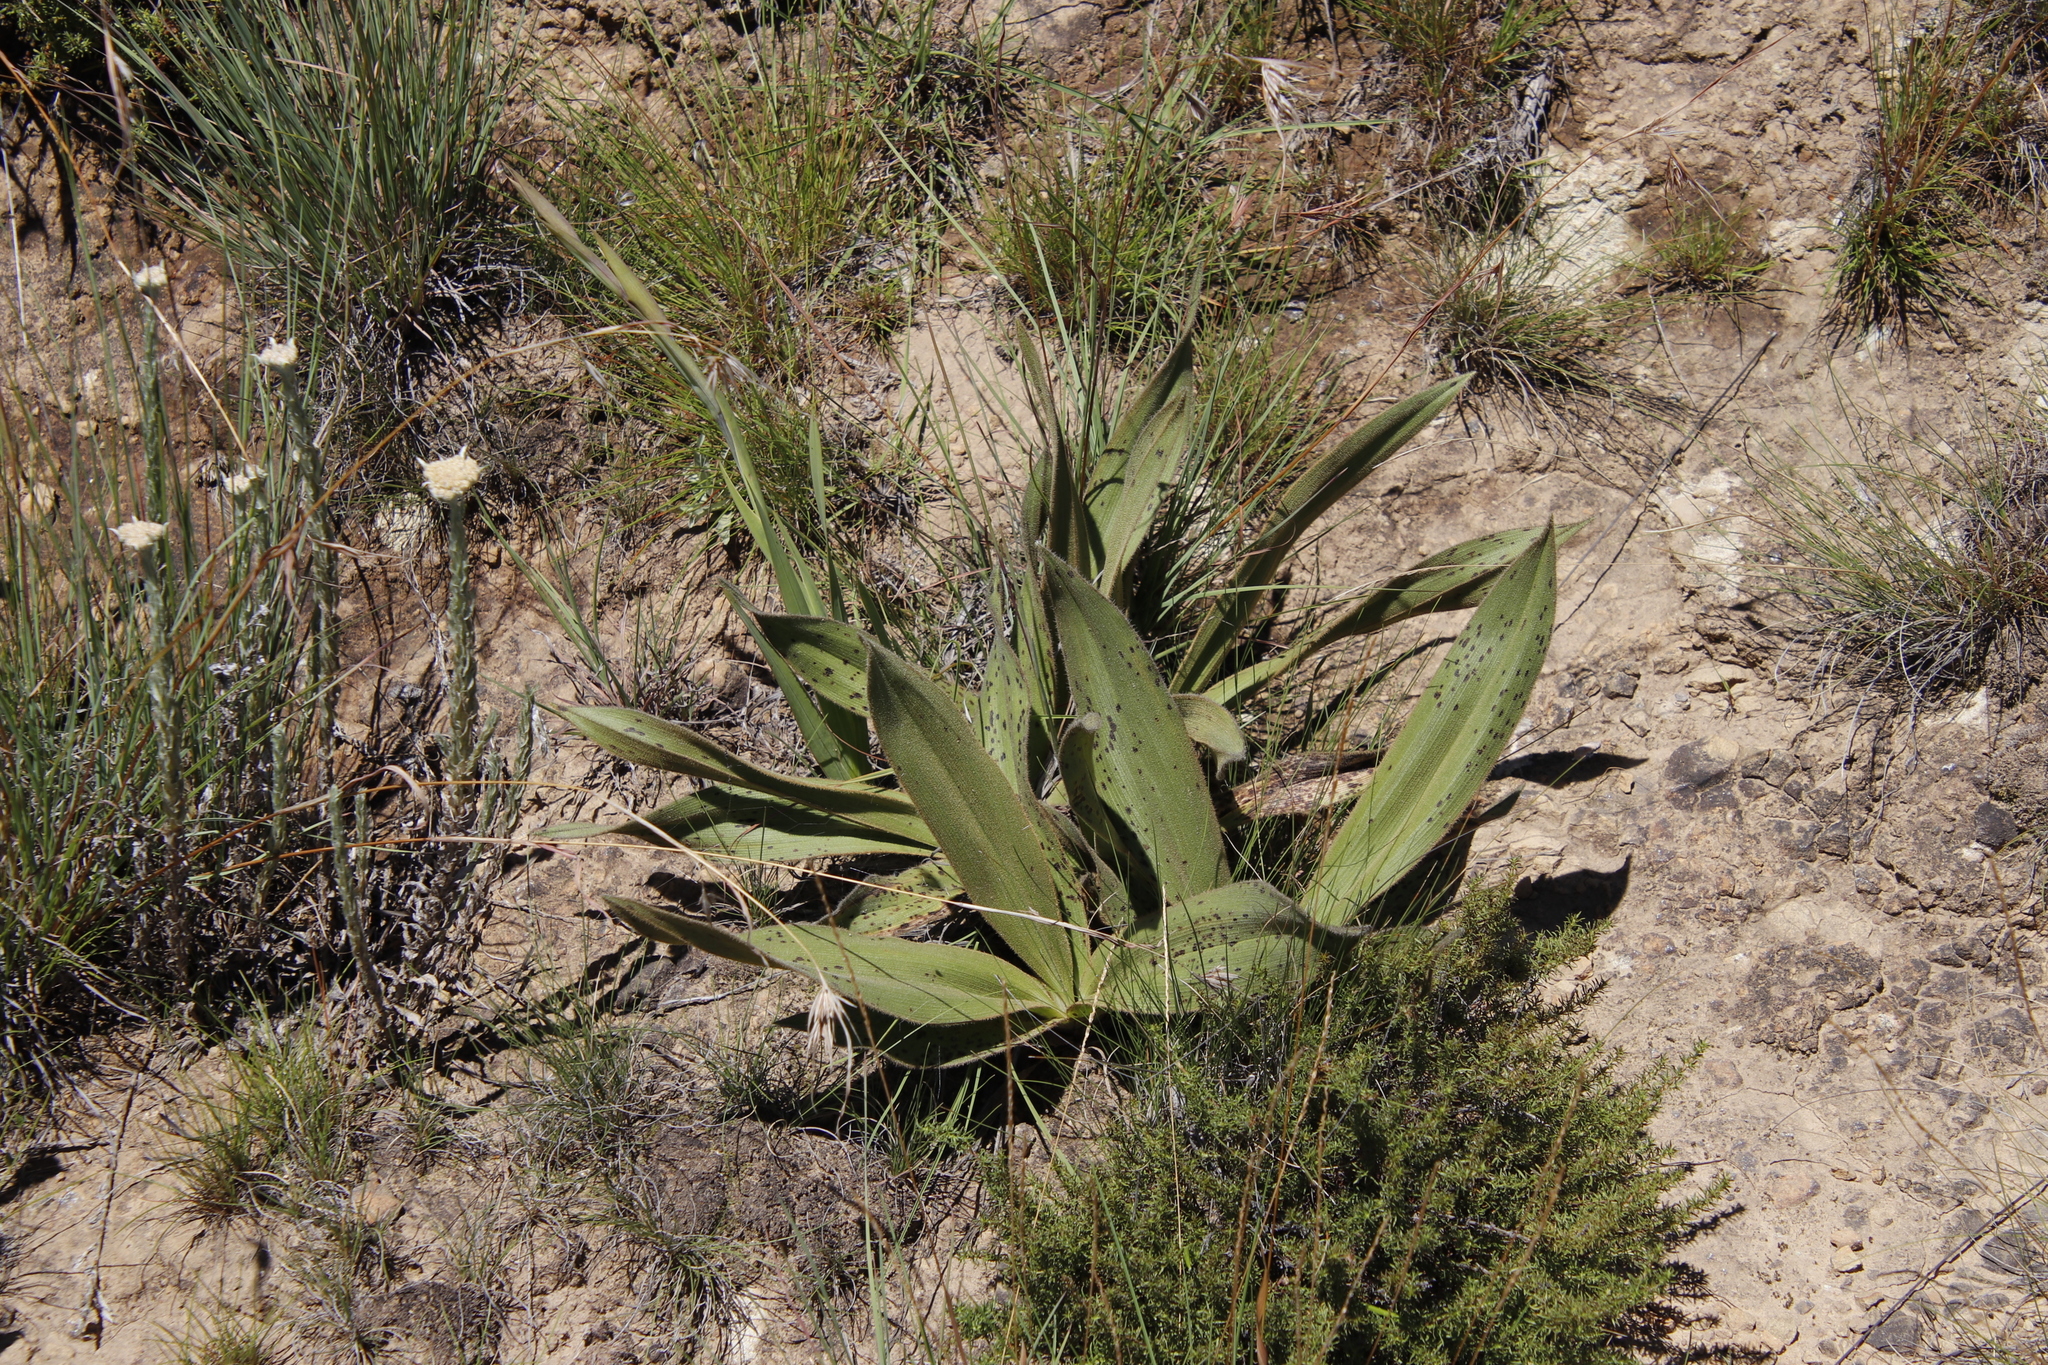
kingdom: Plantae
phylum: Tracheophyta
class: Liliopsida
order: Asparagales
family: Hypoxidaceae
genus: Hypoxis
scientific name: Hypoxis multiceps
